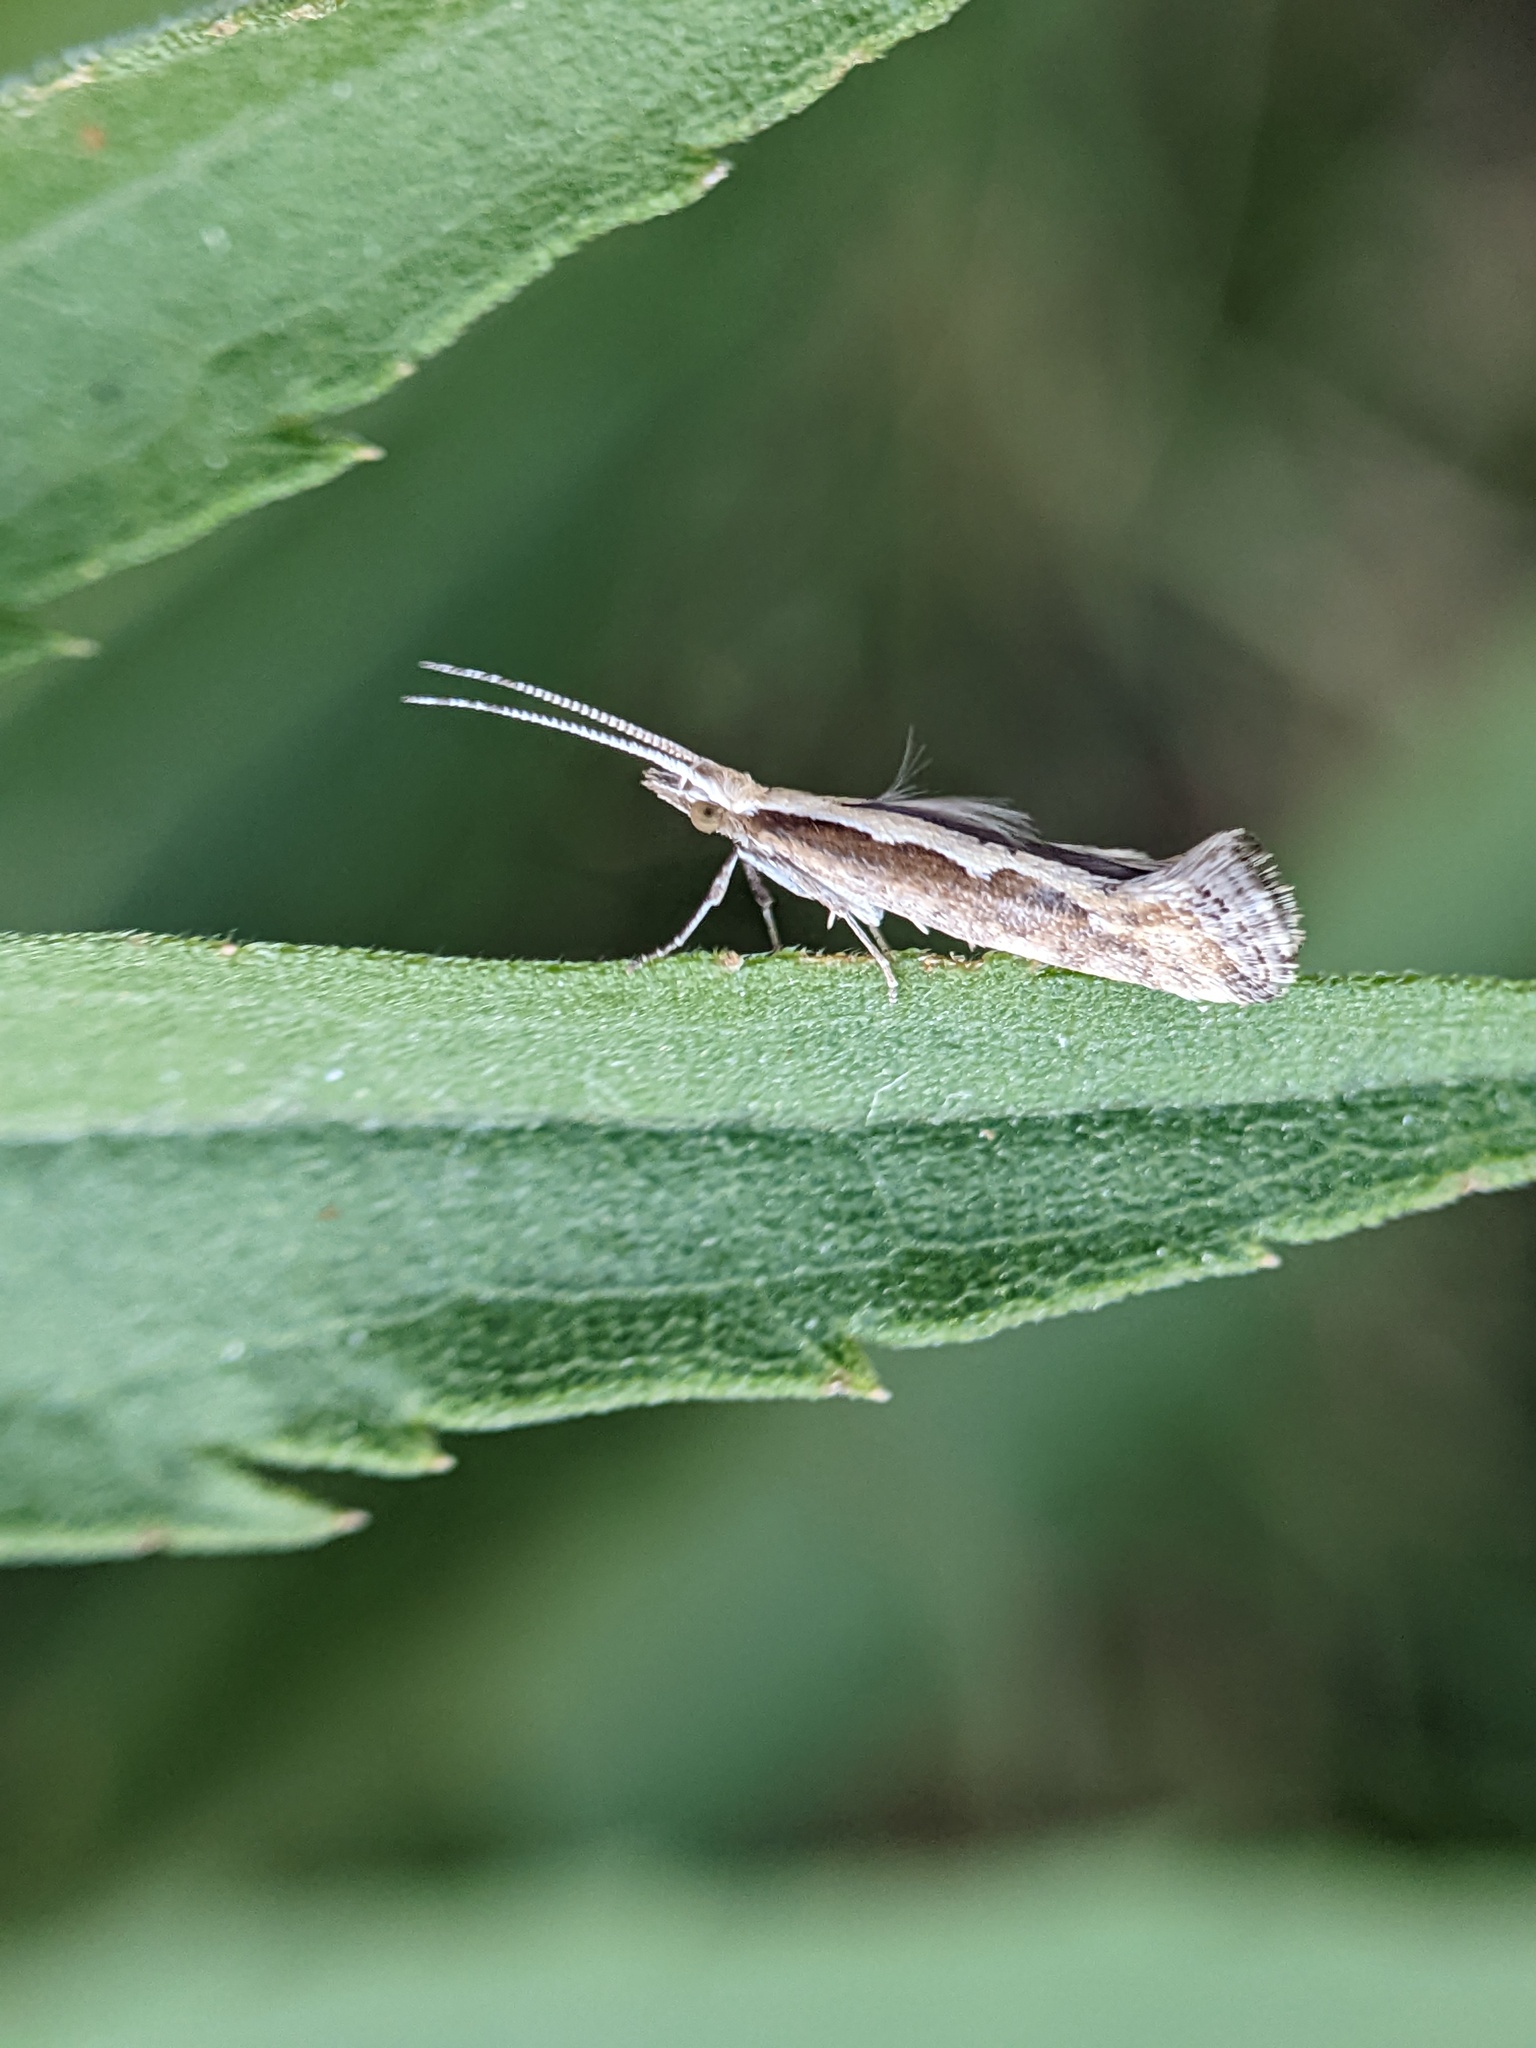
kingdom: Animalia
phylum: Arthropoda
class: Insecta
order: Lepidoptera
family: Plutellidae
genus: Plutella
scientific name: Plutella xylostella
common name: Diamond-back moth
